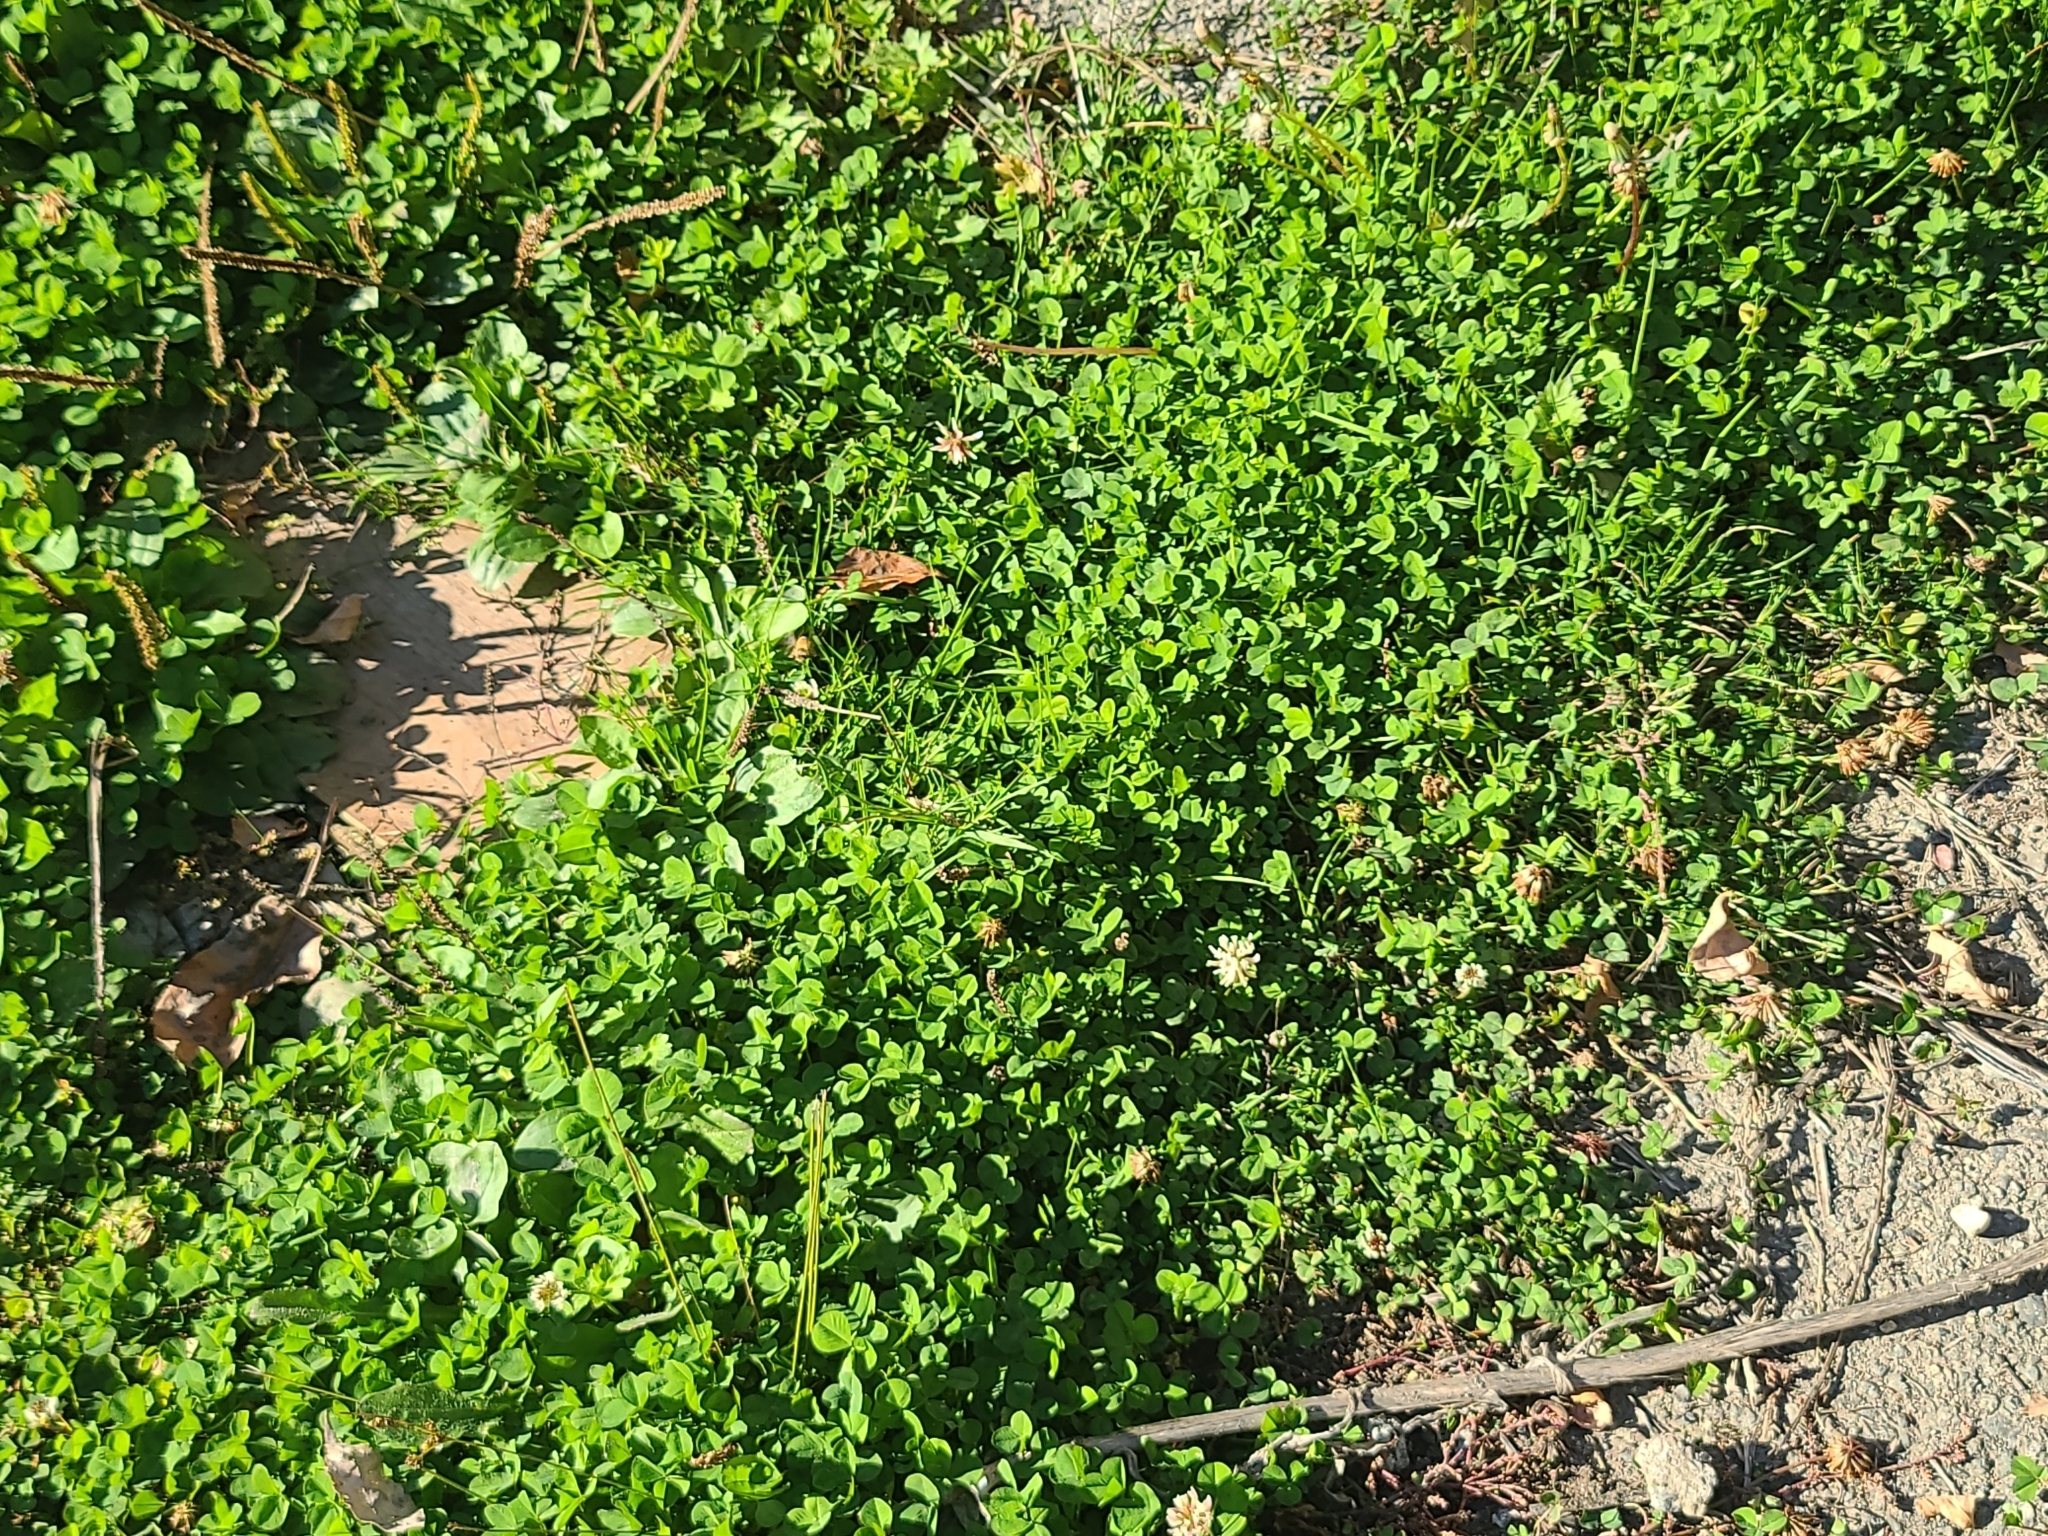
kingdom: Plantae
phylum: Tracheophyta
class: Magnoliopsida
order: Fabales
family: Fabaceae
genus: Trifolium
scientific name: Trifolium repens
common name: White clover
